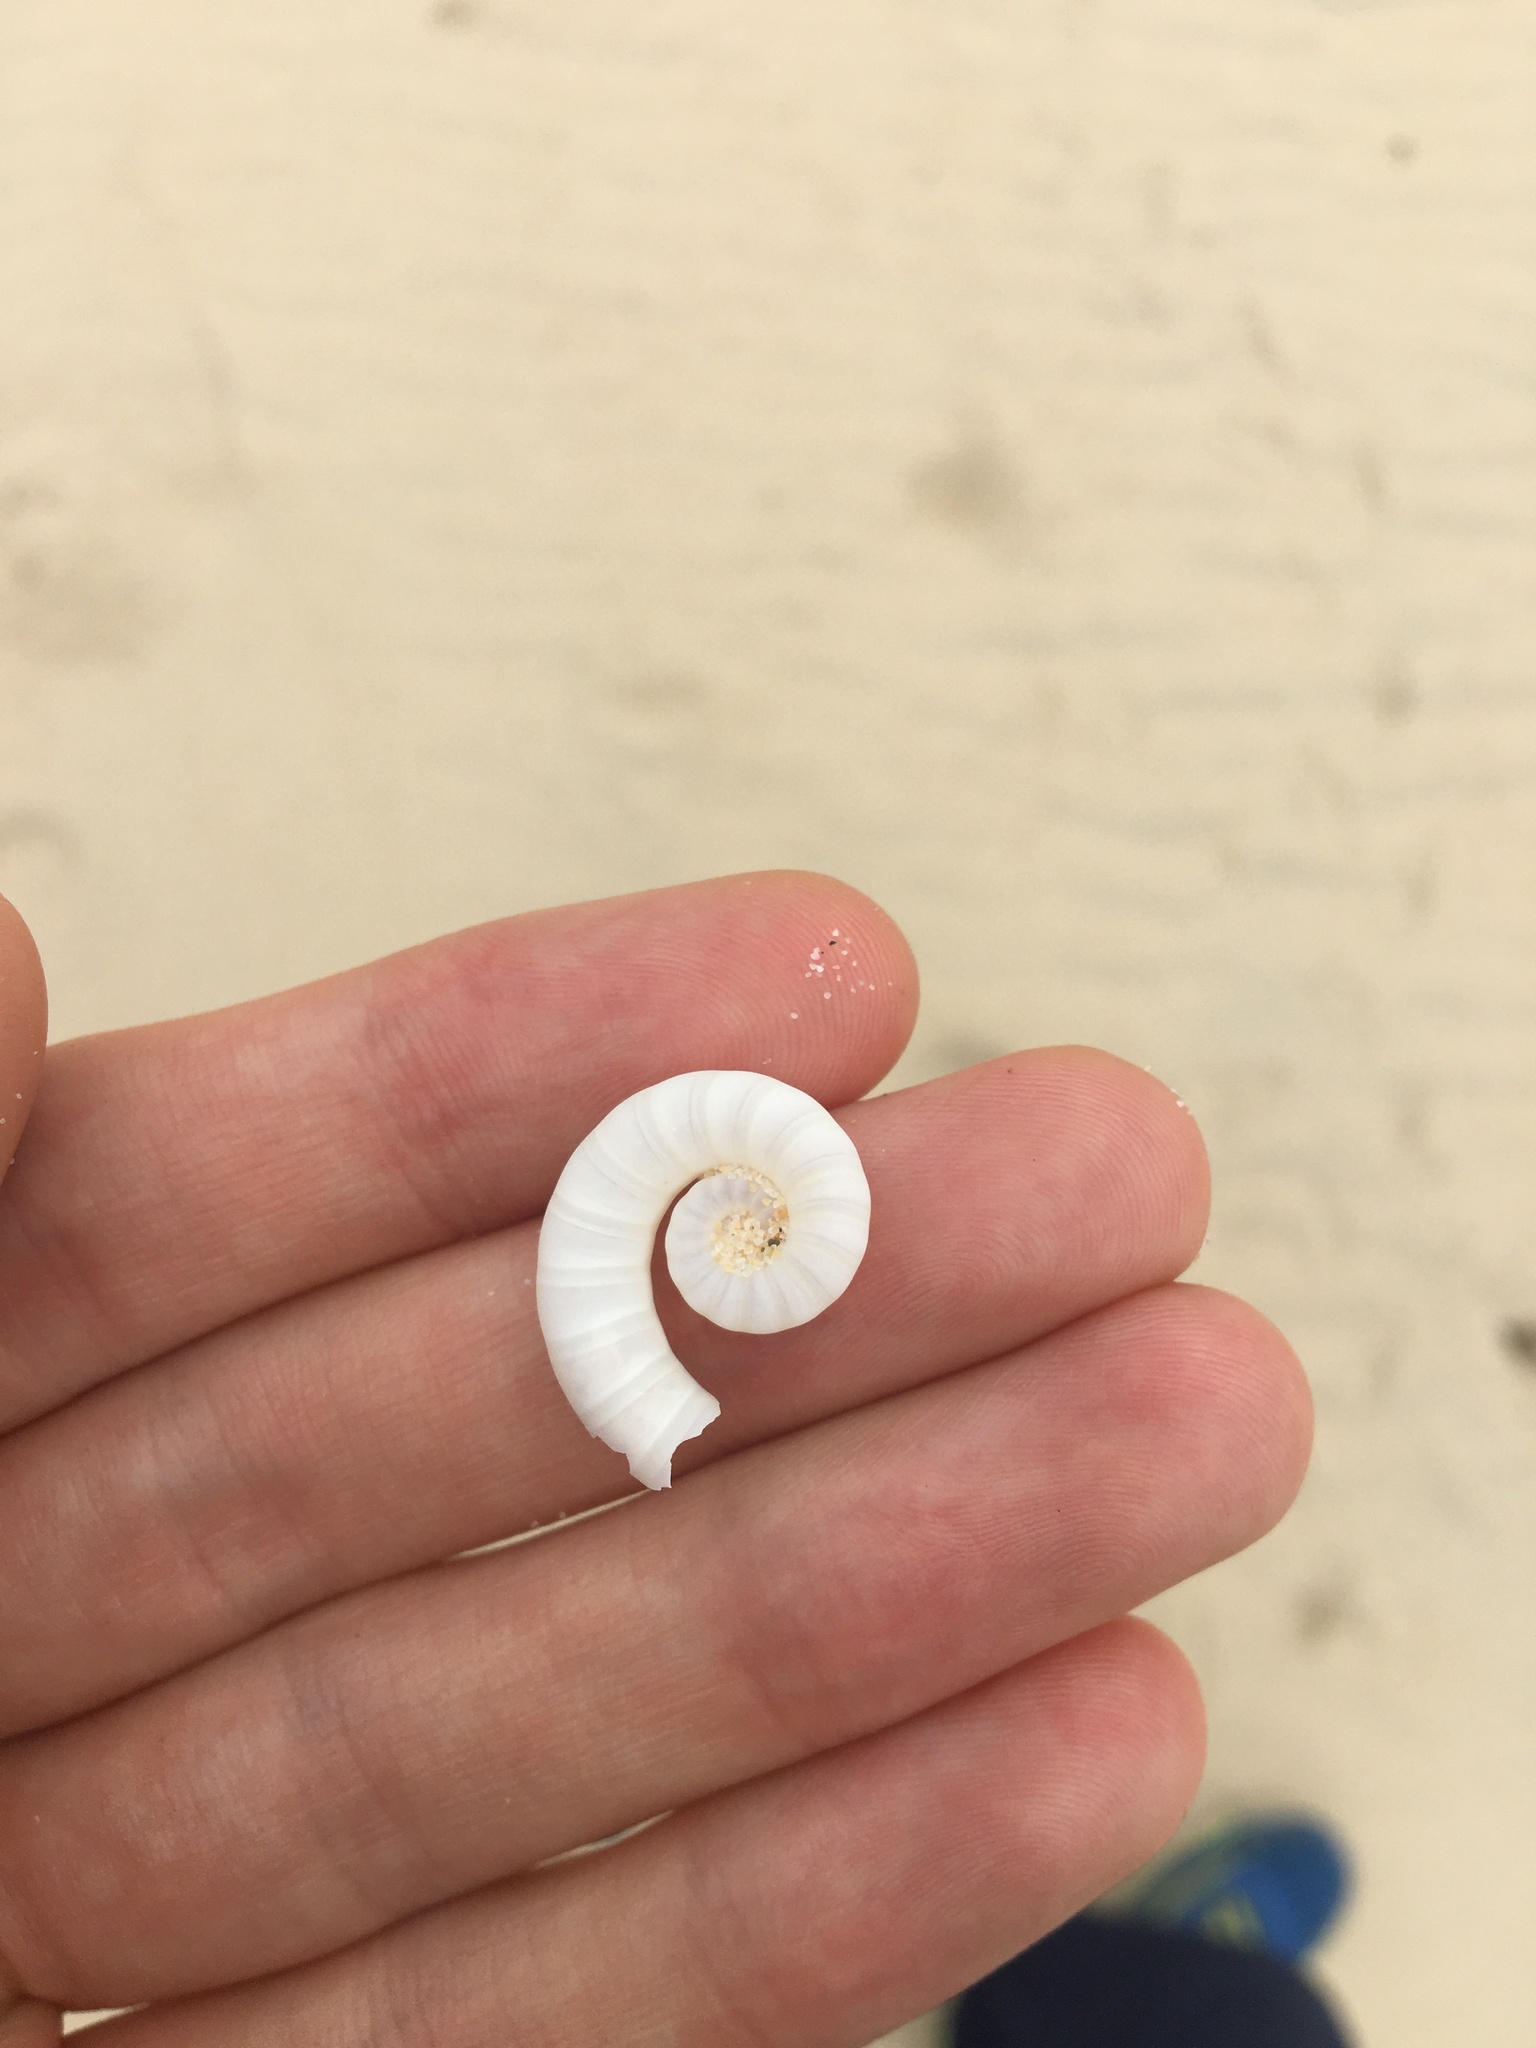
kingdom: Animalia
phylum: Mollusca
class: Cephalopoda
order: Spirulida
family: Spirulidae
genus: Spirula
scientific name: Spirula spirula
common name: Ram's horn squid
